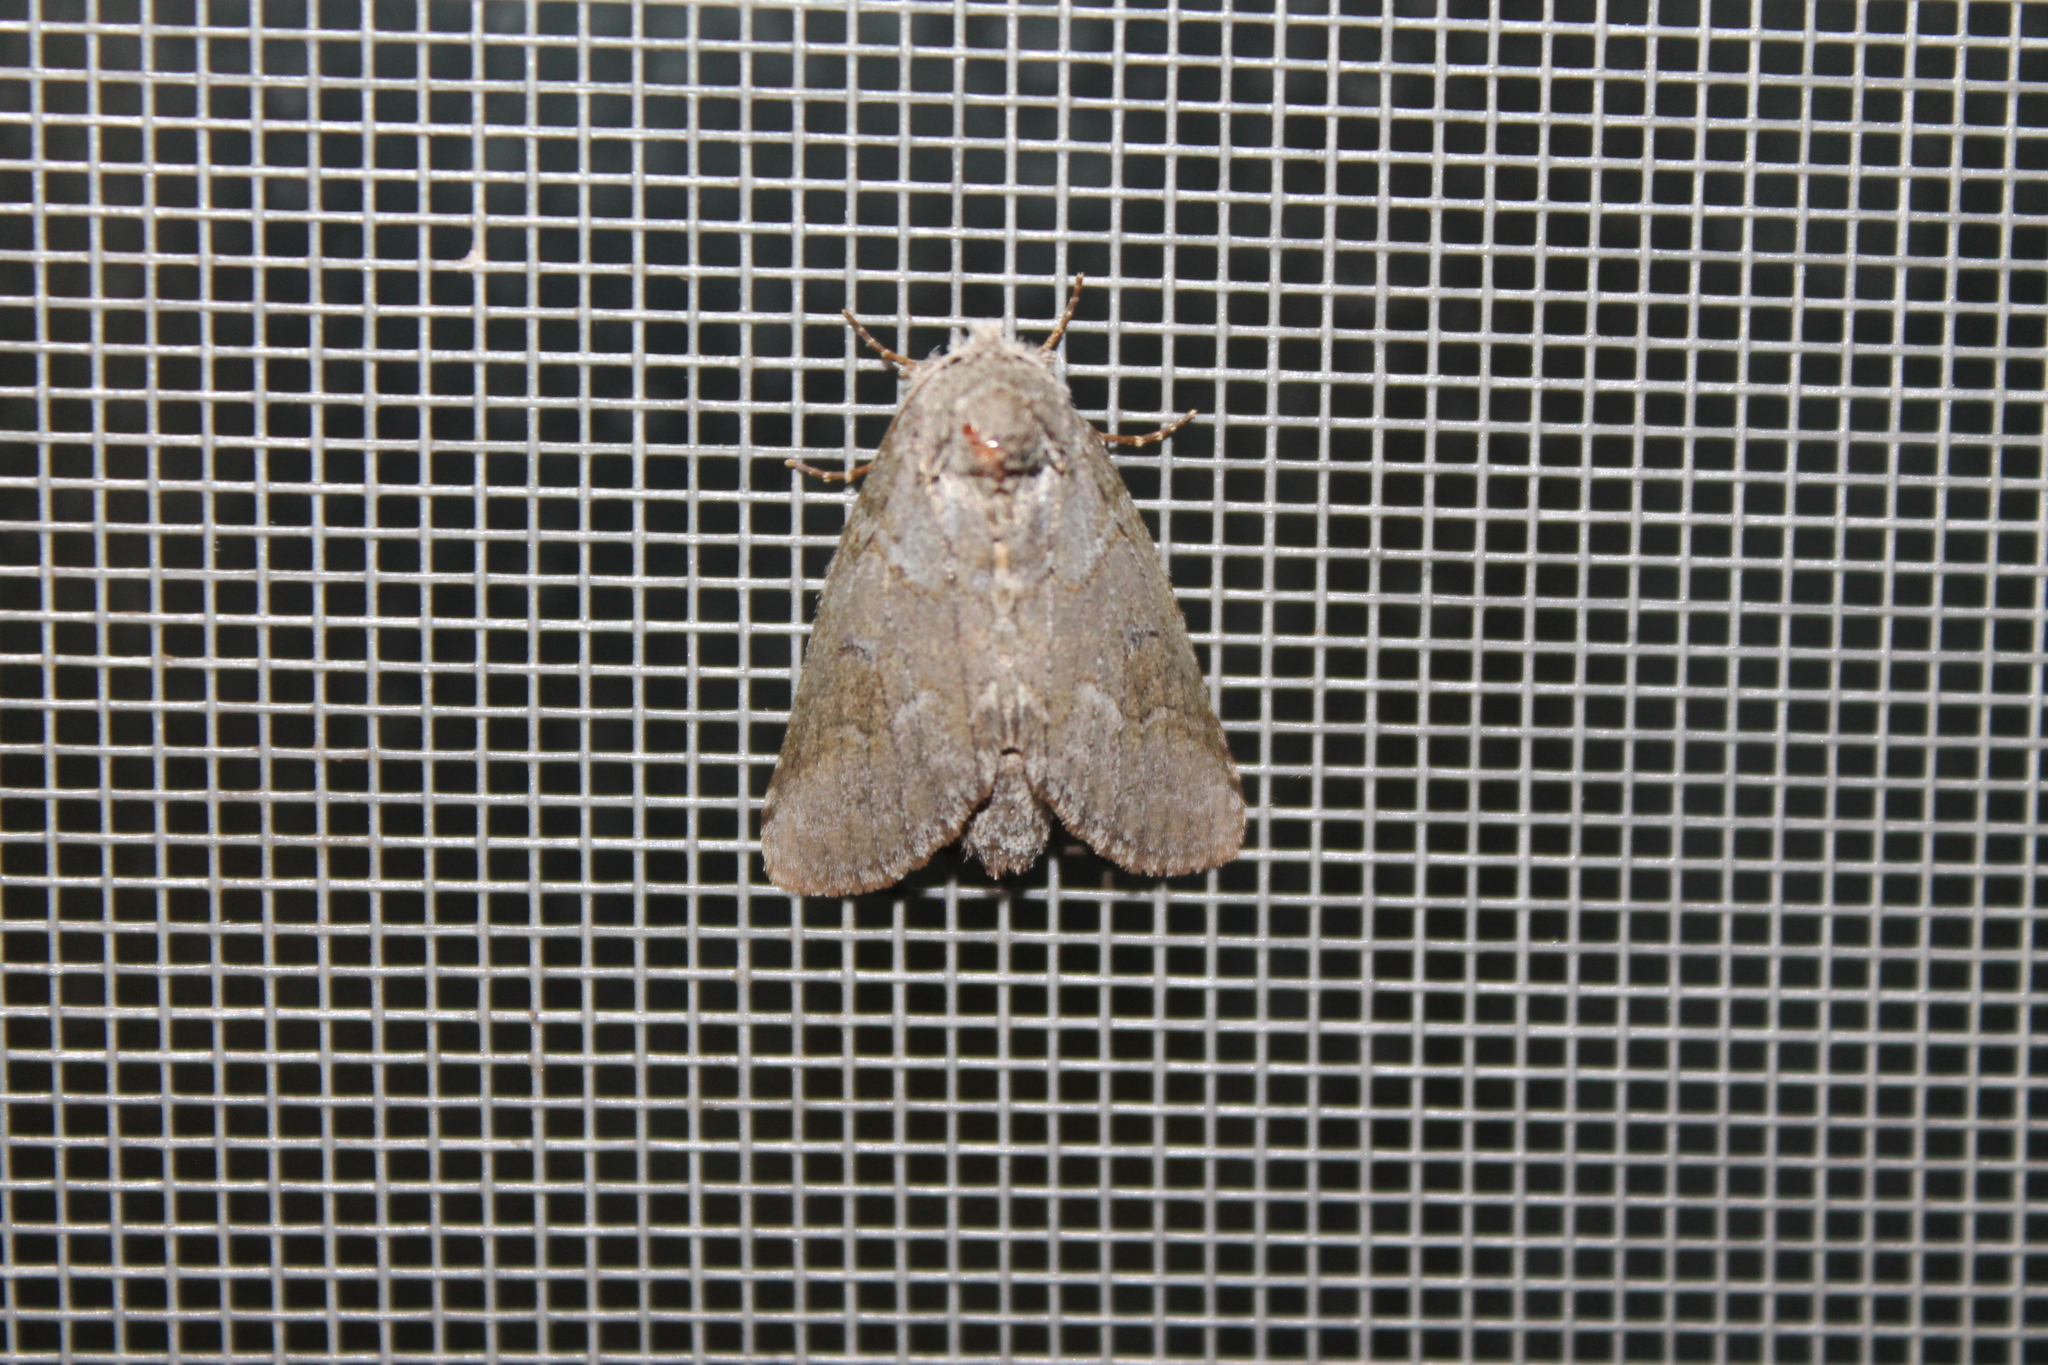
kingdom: Animalia
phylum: Arthropoda
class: Insecta
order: Lepidoptera
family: Notodontidae
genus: Lochmaeus
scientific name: Lochmaeus bilineata
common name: Double-lined prominent
